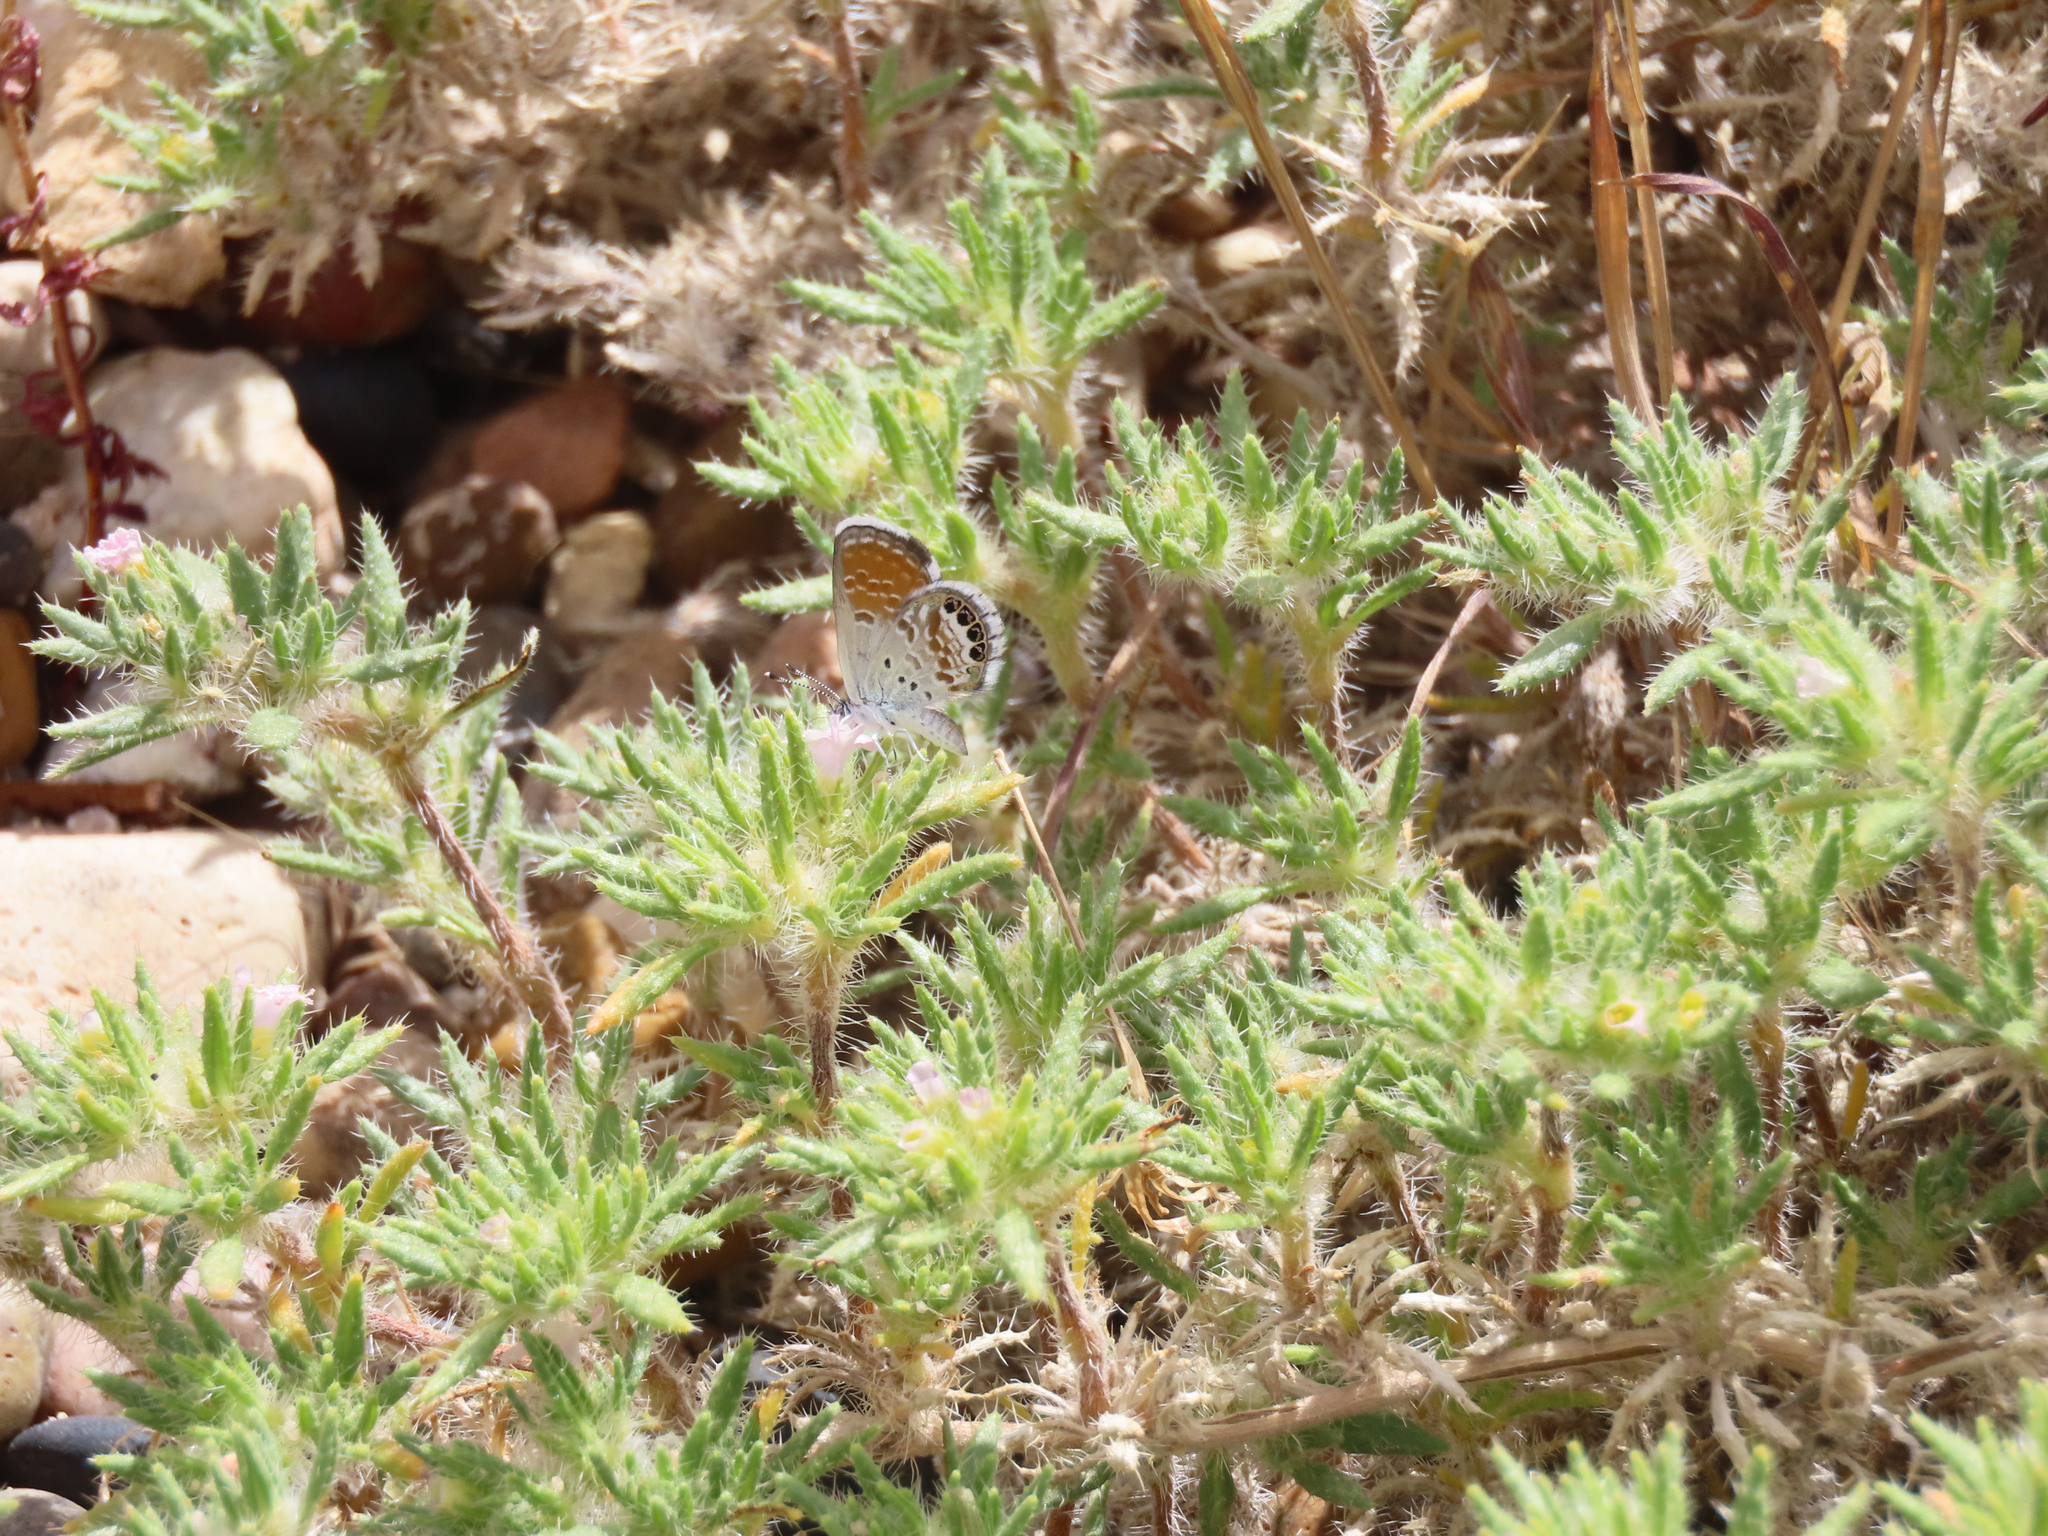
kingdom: Animalia
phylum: Arthropoda
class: Insecta
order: Lepidoptera
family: Lycaenidae
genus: Brephidium
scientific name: Brephidium exilis
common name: Pygmy blue
